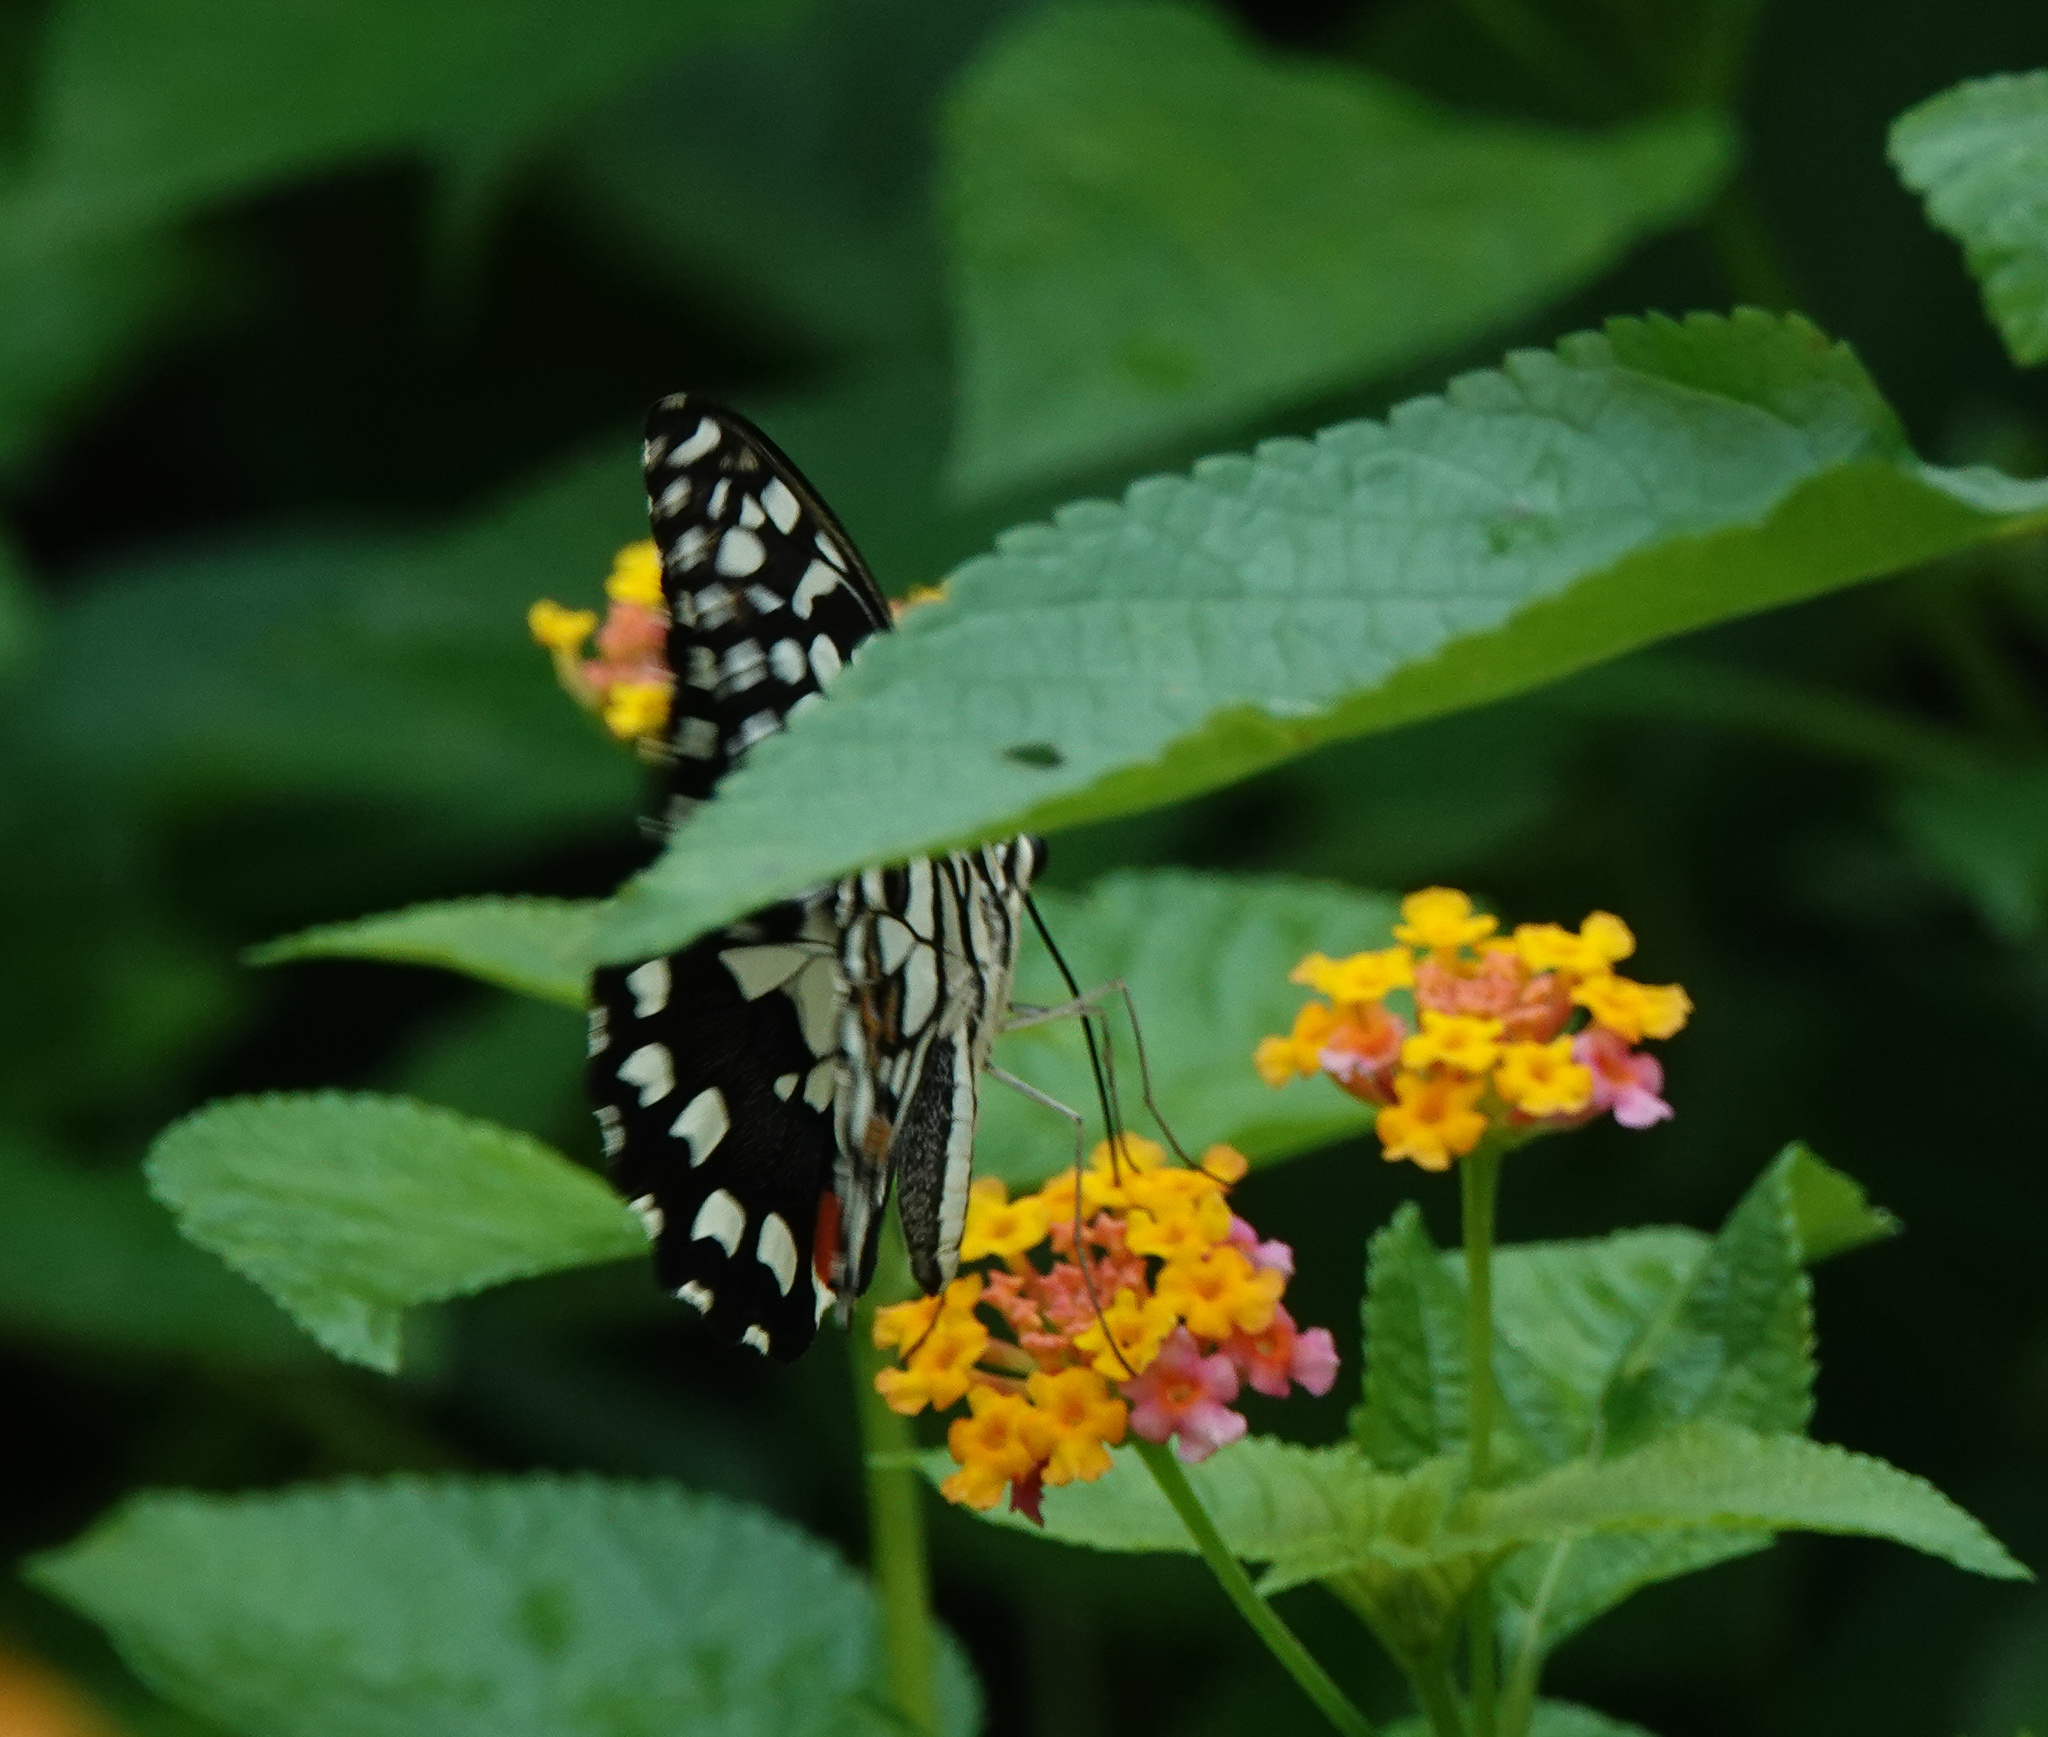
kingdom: Animalia
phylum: Arthropoda
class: Insecta
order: Lepidoptera
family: Papilionidae
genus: Papilio
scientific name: Papilio demoleus
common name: Lime butterfly
